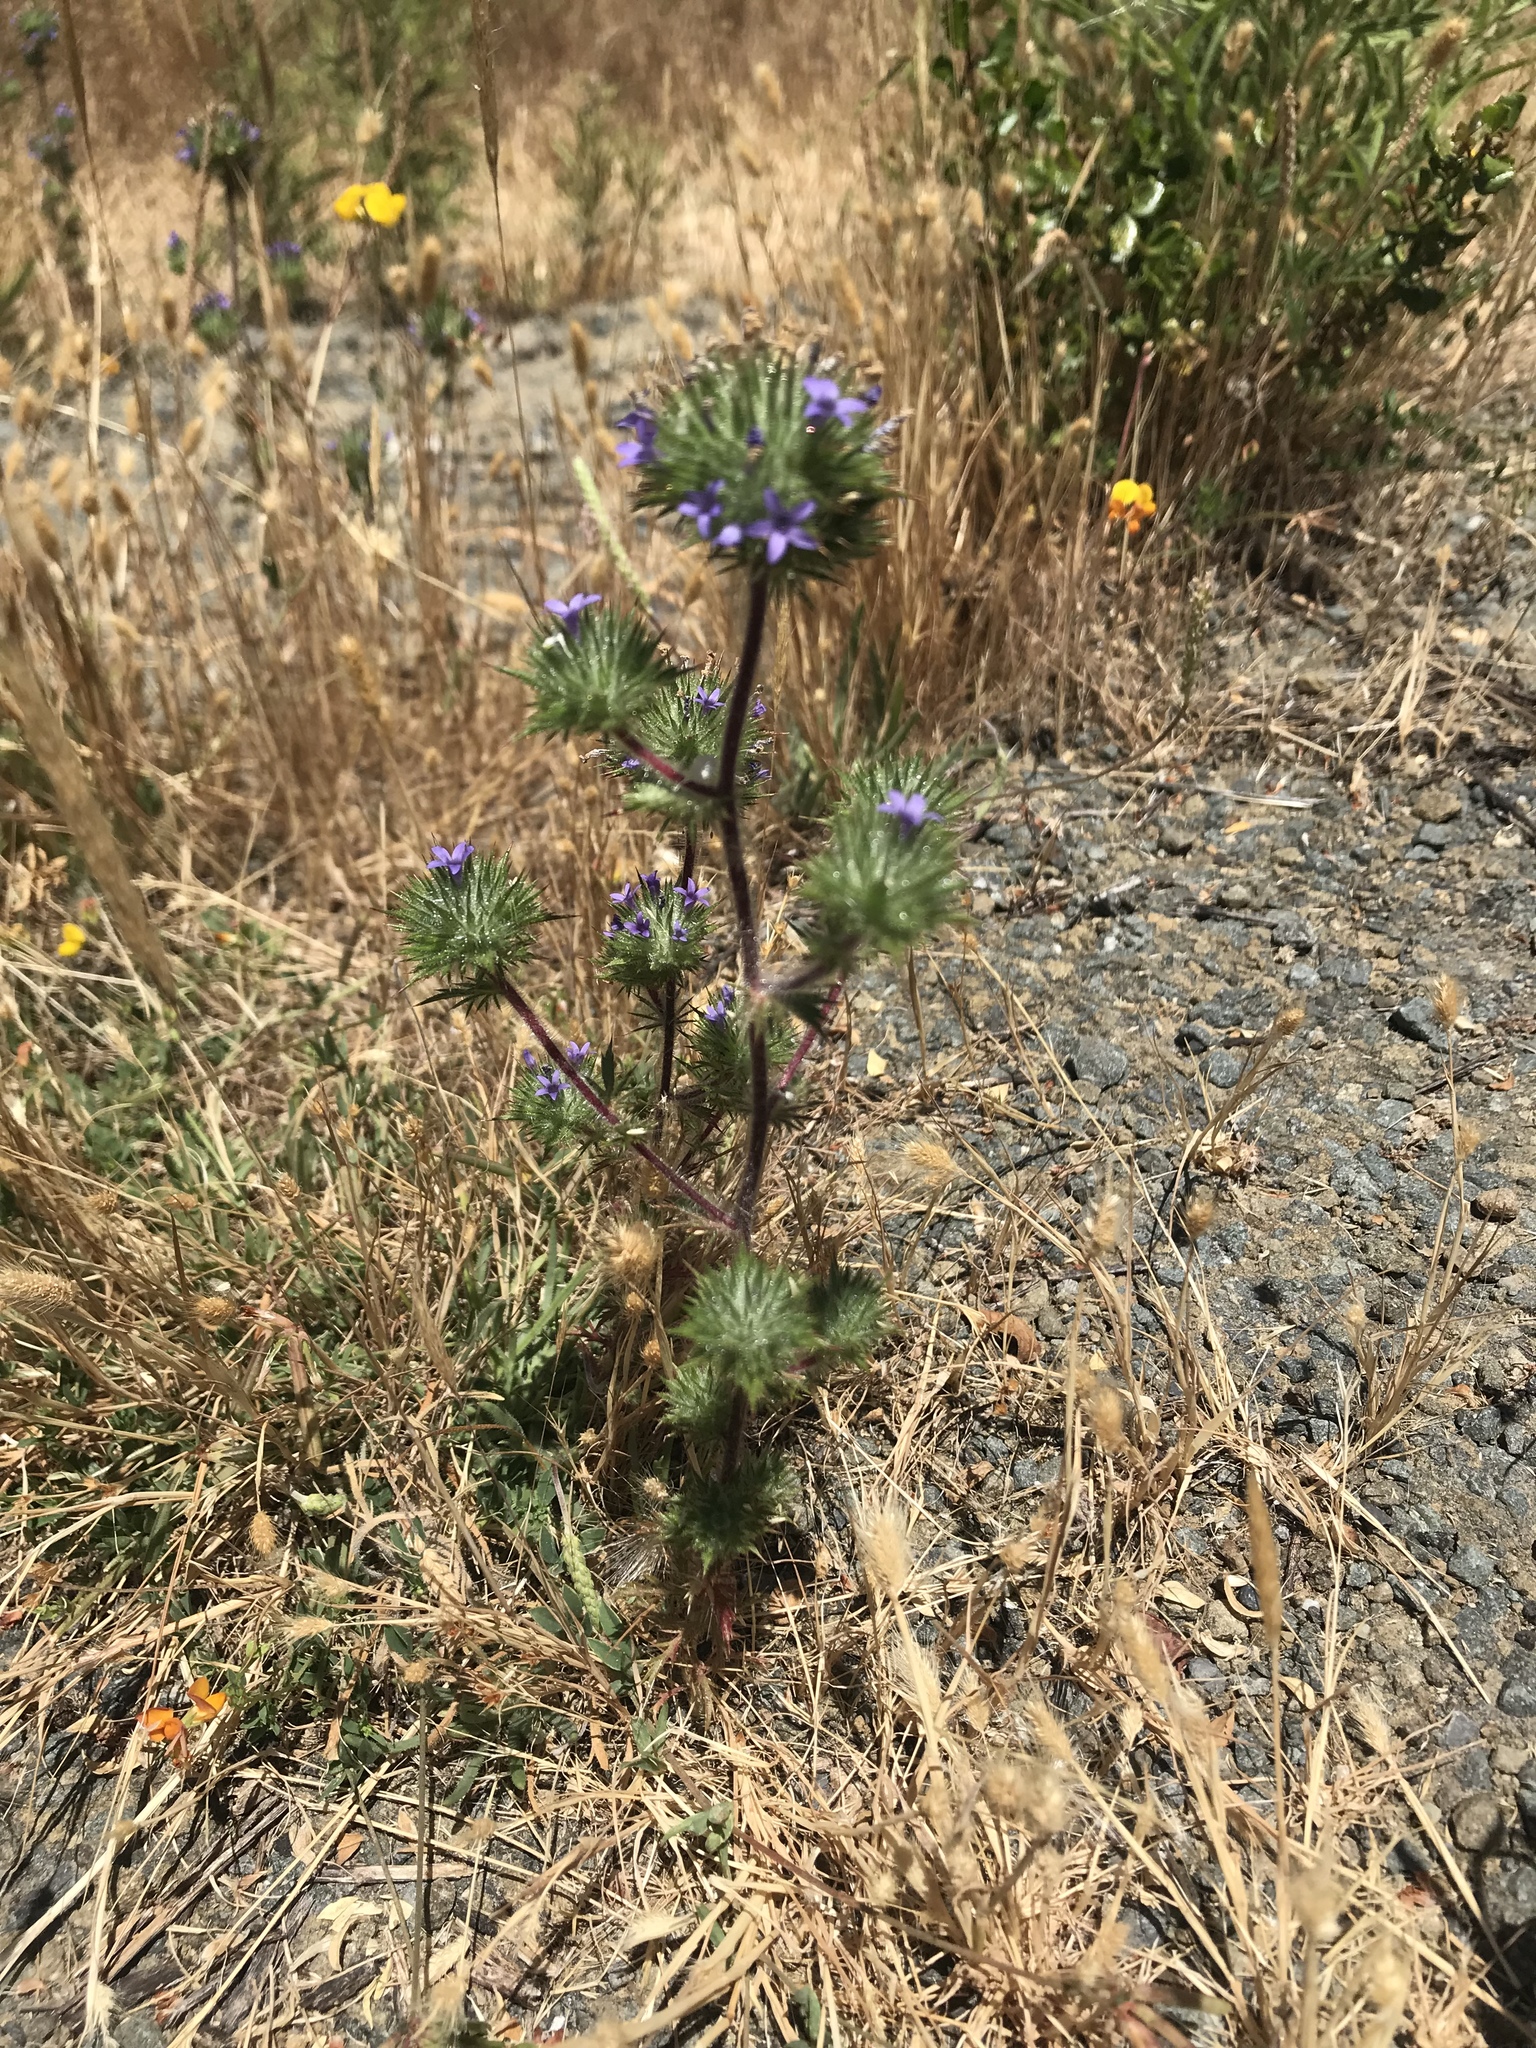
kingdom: Plantae
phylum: Tracheophyta
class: Magnoliopsida
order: Ericales
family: Polemoniaceae
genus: Navarretia
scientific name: Navarretia squarrosa
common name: Skunkweed
